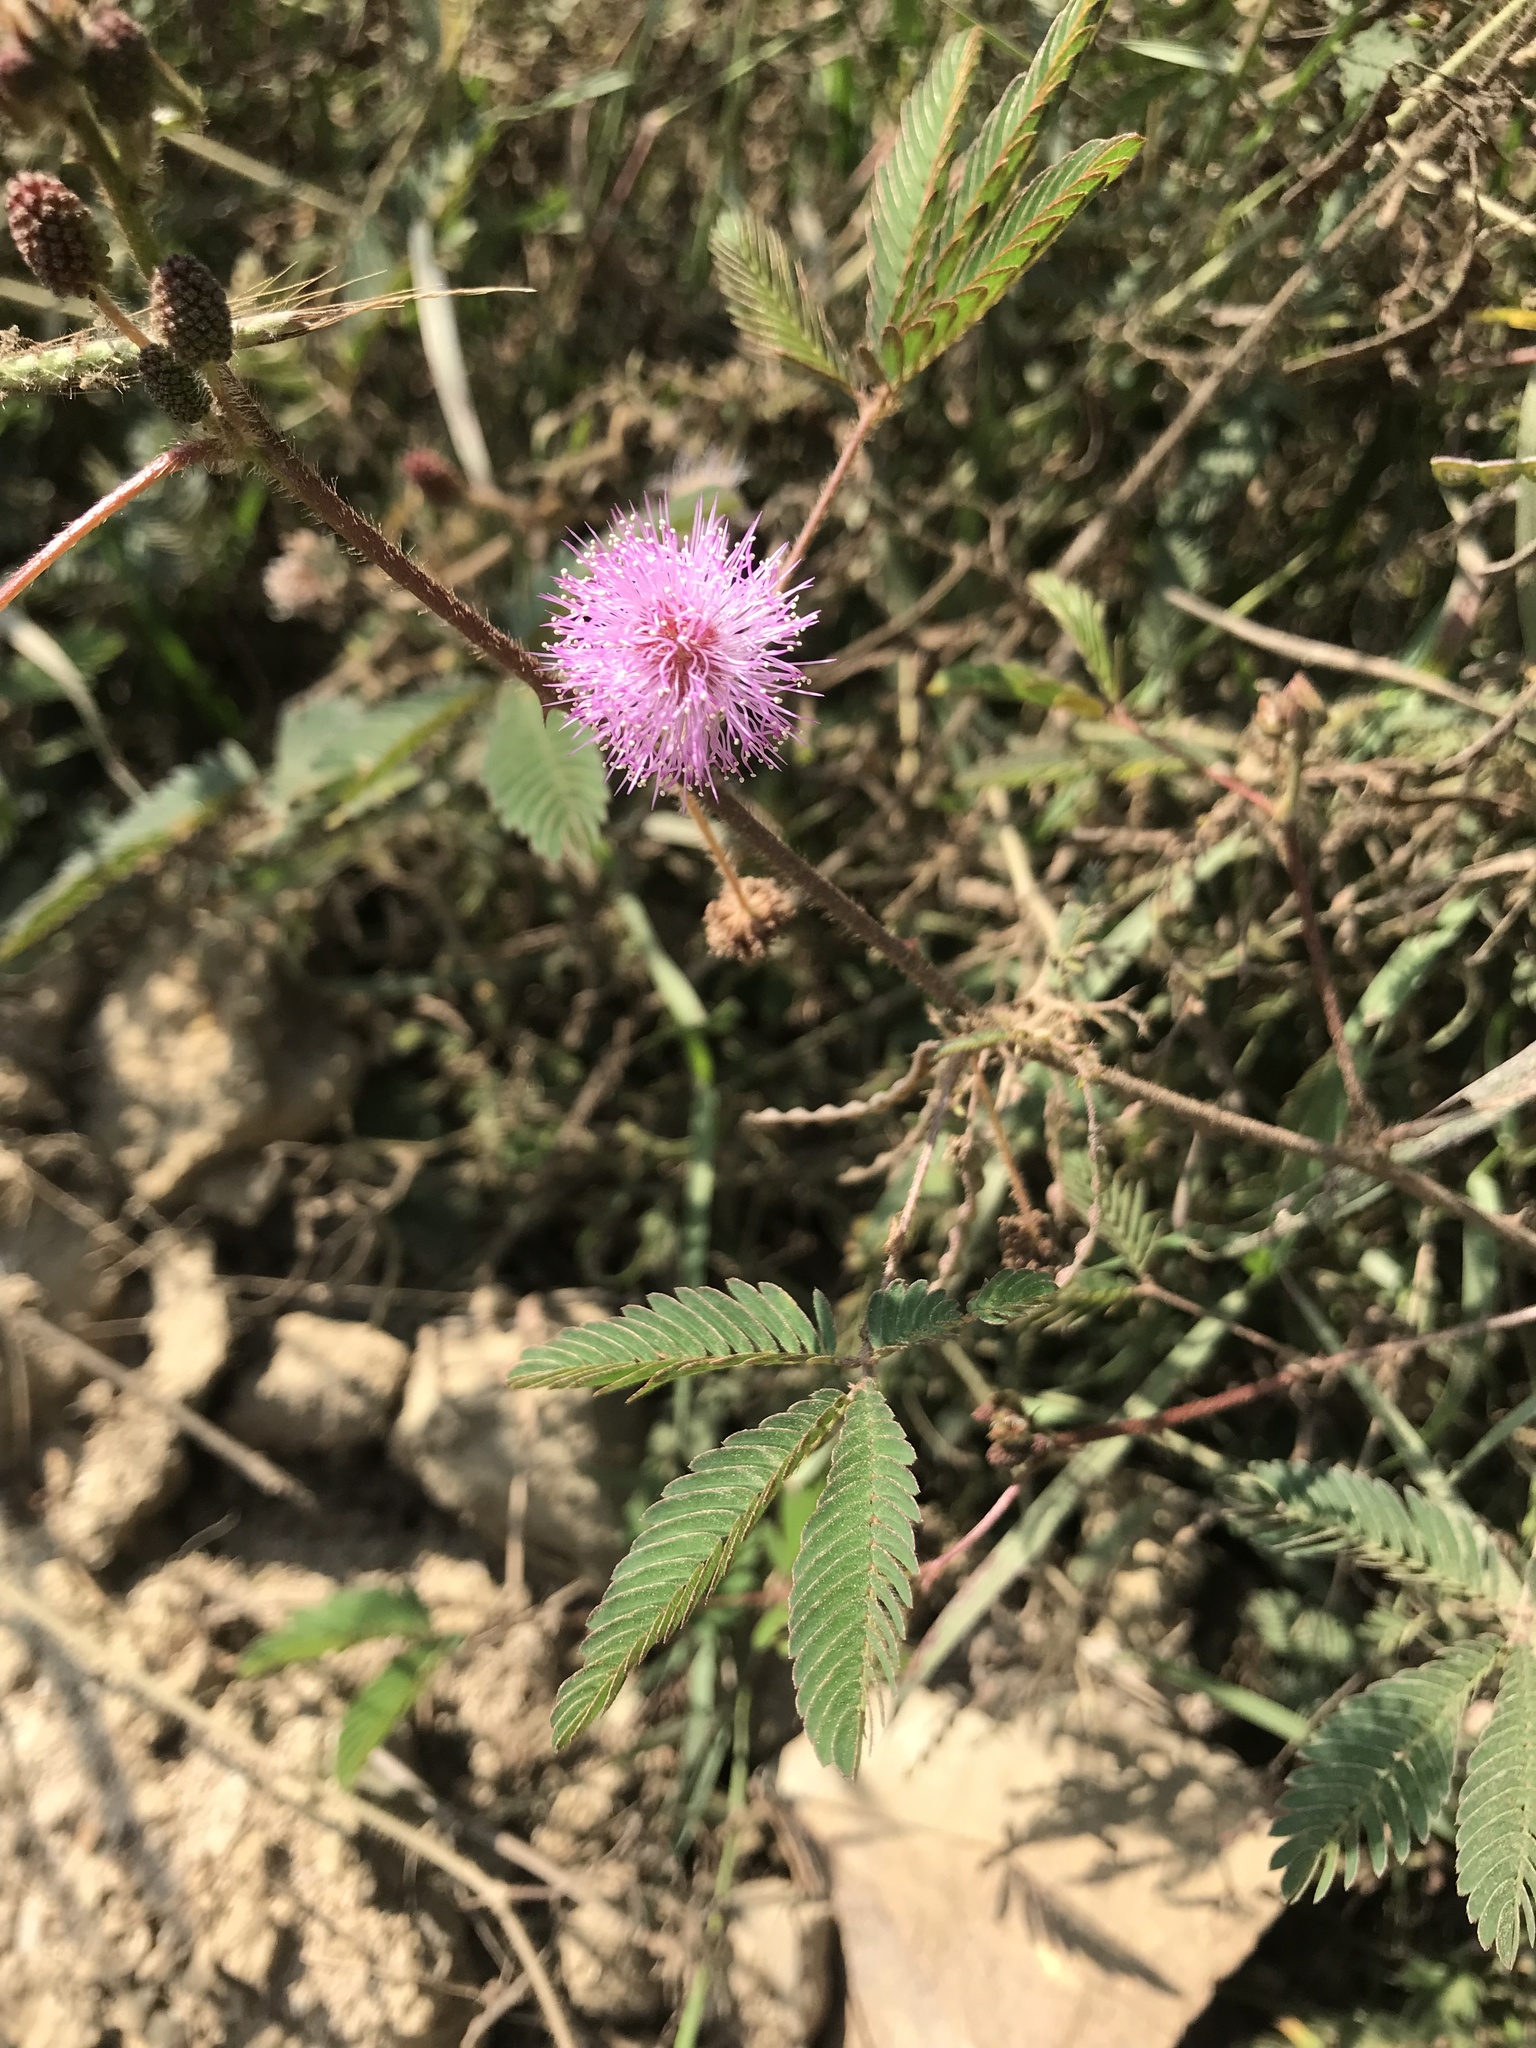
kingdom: Plantae
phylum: Tracheophyta
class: Magnoliopsida
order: Fabales
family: Fabaceae
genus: Mimosa
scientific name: Mimosa pudica
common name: Sensitive plant
